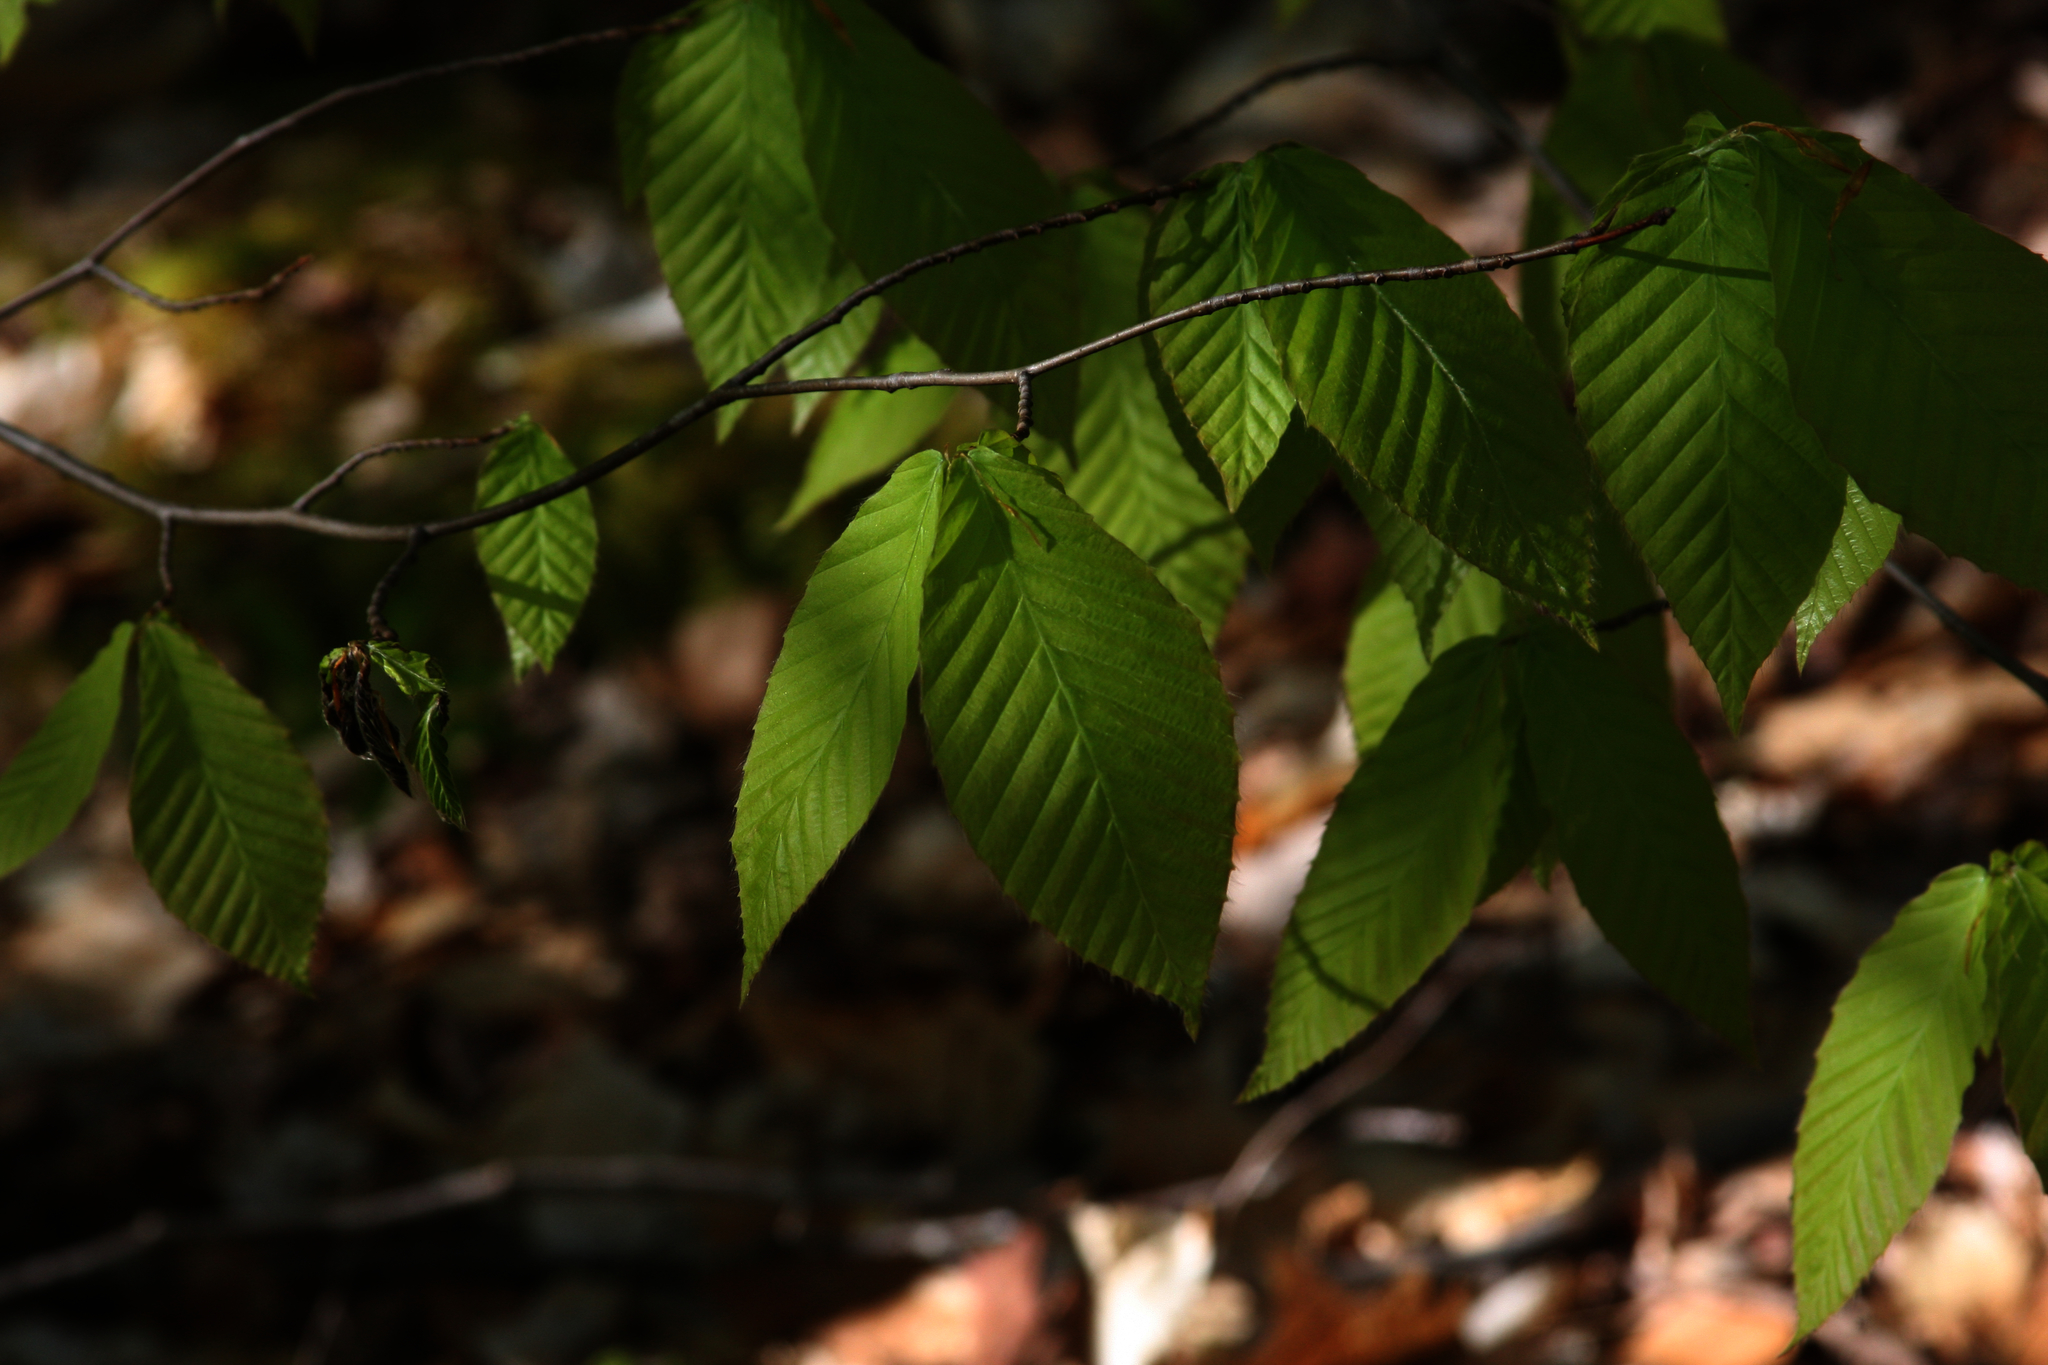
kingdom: Plantae
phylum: Tracheophyta
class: Magnoliopsida
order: Fagales
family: Fagaceae
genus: Fagus
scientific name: Fagus grandifolia
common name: American beech
